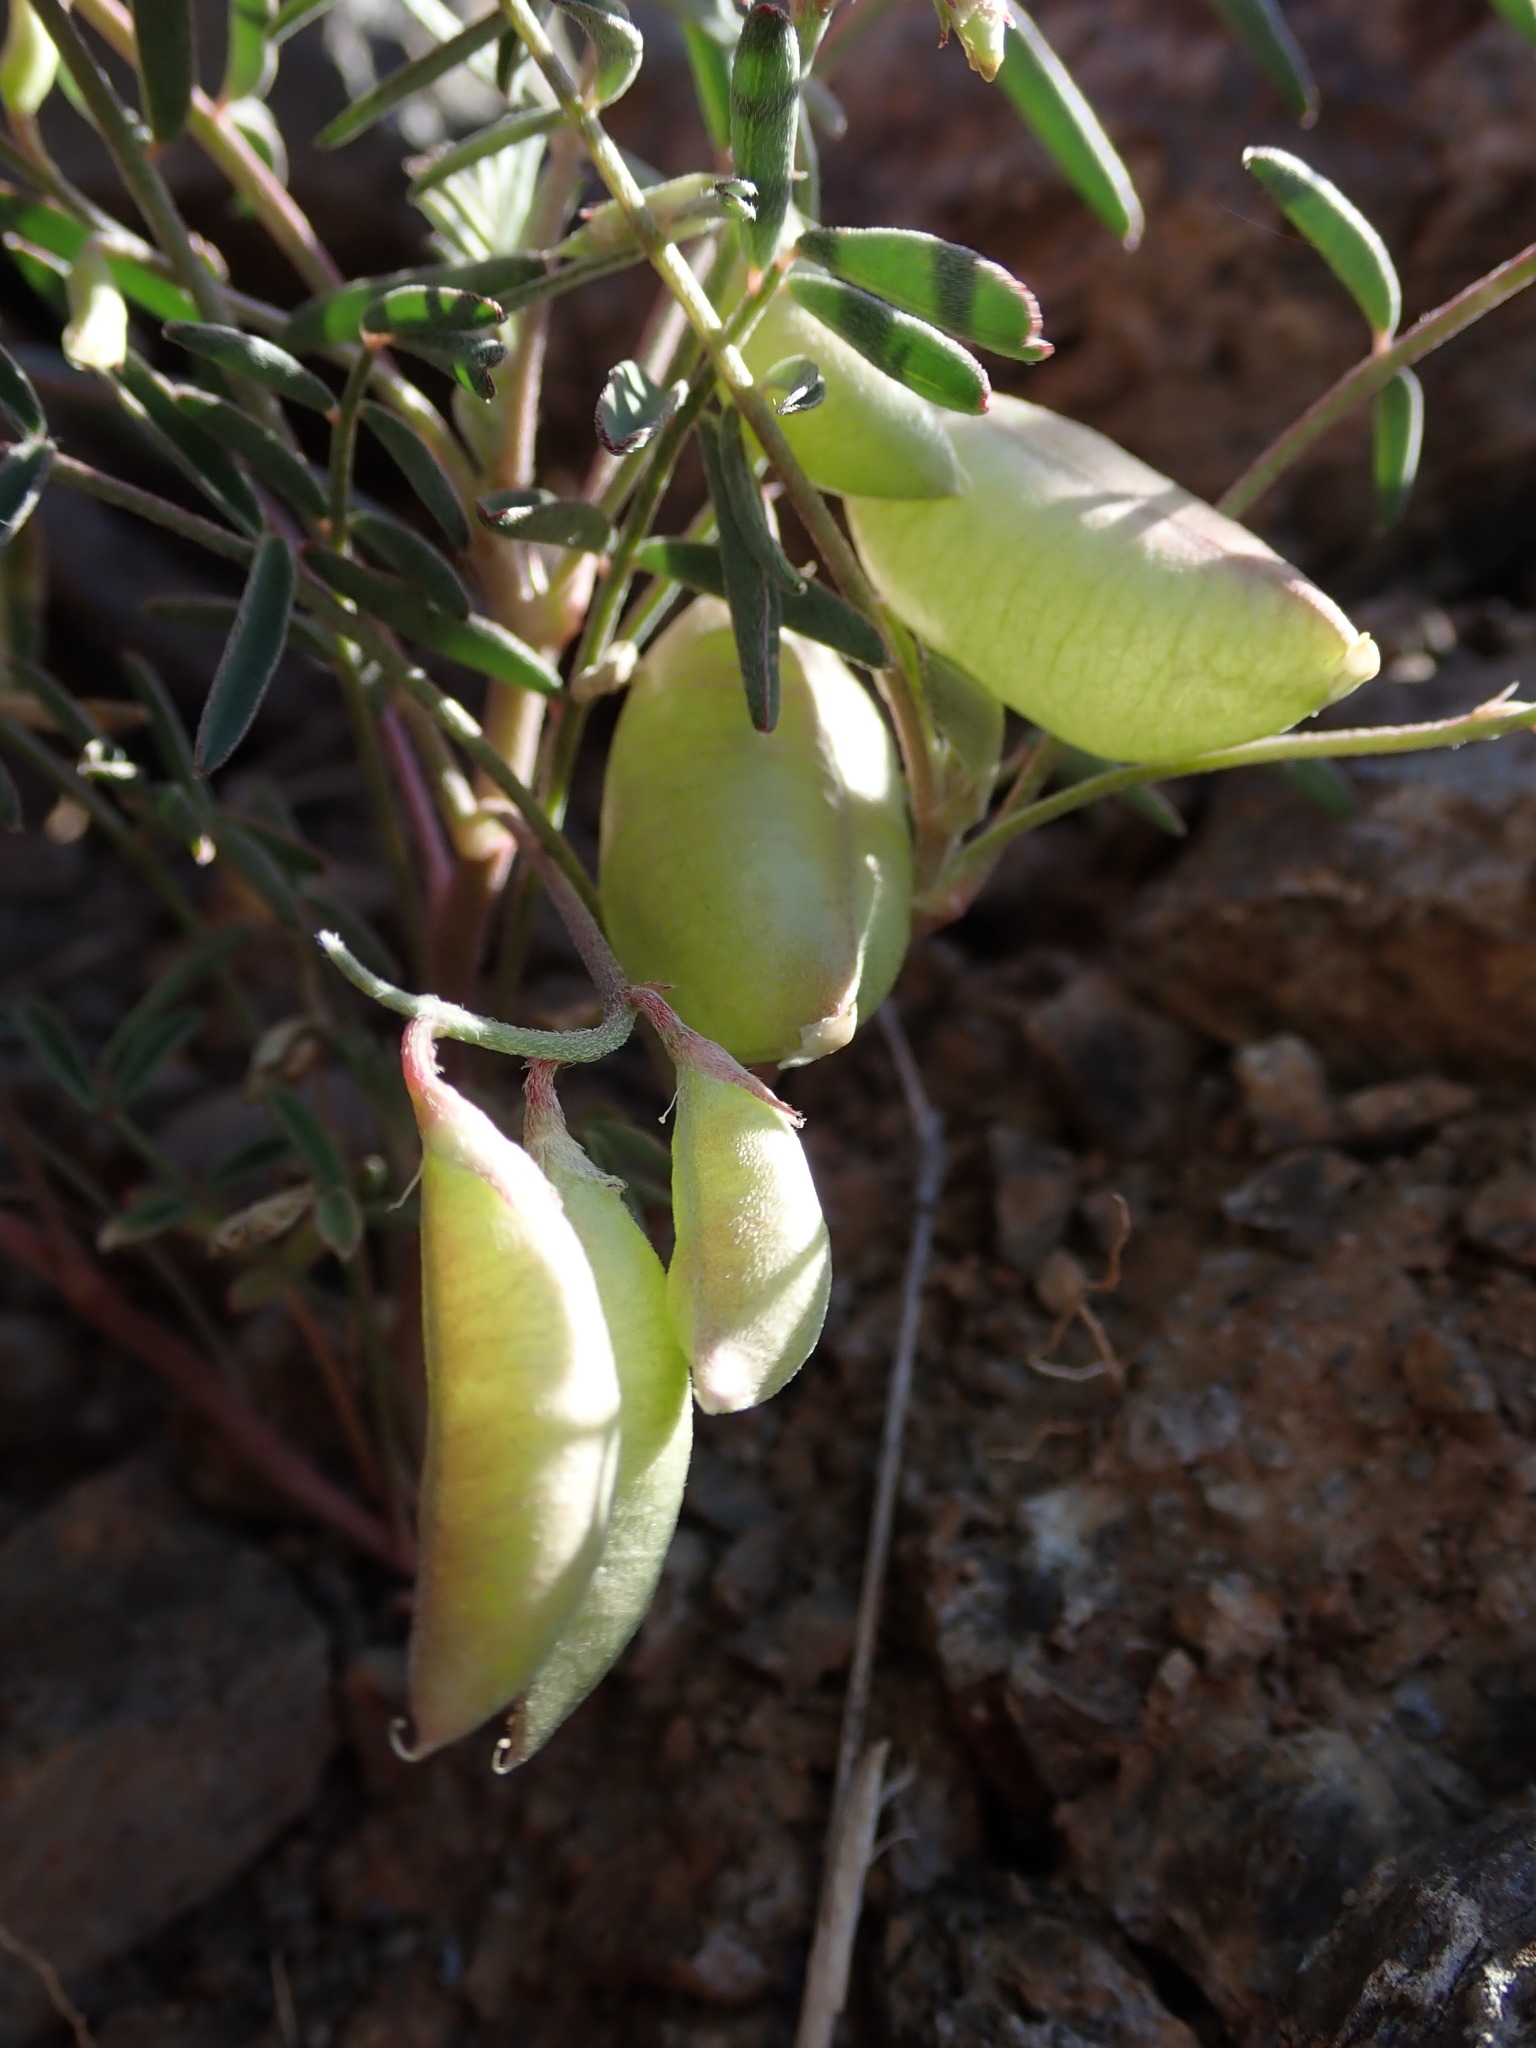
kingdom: Plantae
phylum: Tracheophyta
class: Magnoliopsida
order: Fabales
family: Fabaceae
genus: Astragalus
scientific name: Astragalus allochrous
